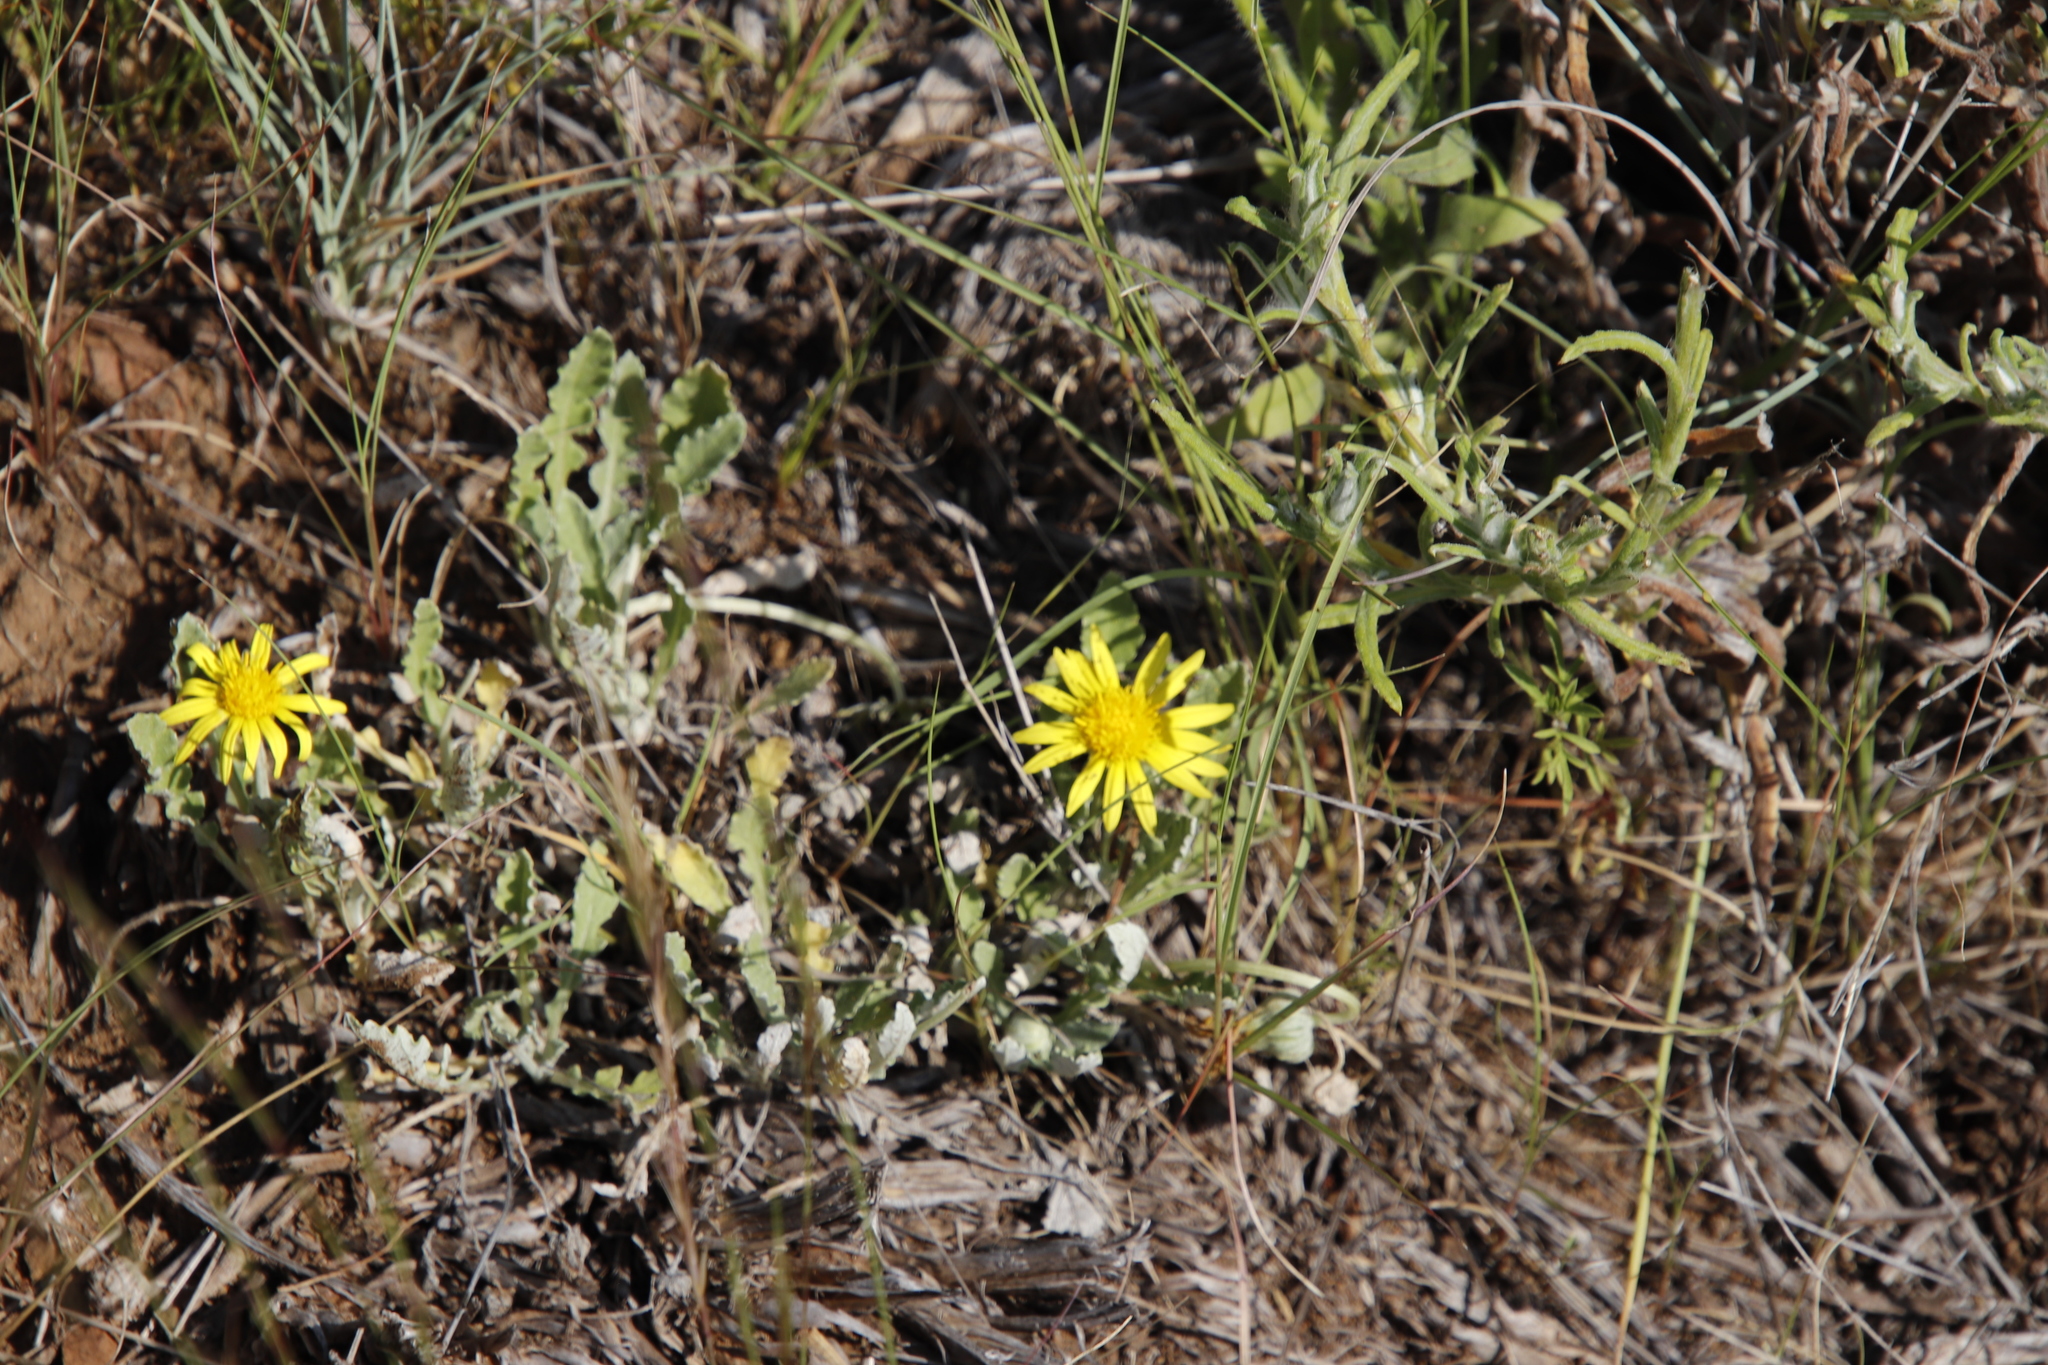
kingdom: Plantae
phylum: Tracheophyta
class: Magnoliopsida
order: Asterales
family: Asteraceae
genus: Arctotis
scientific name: Arctotis arctotoides
